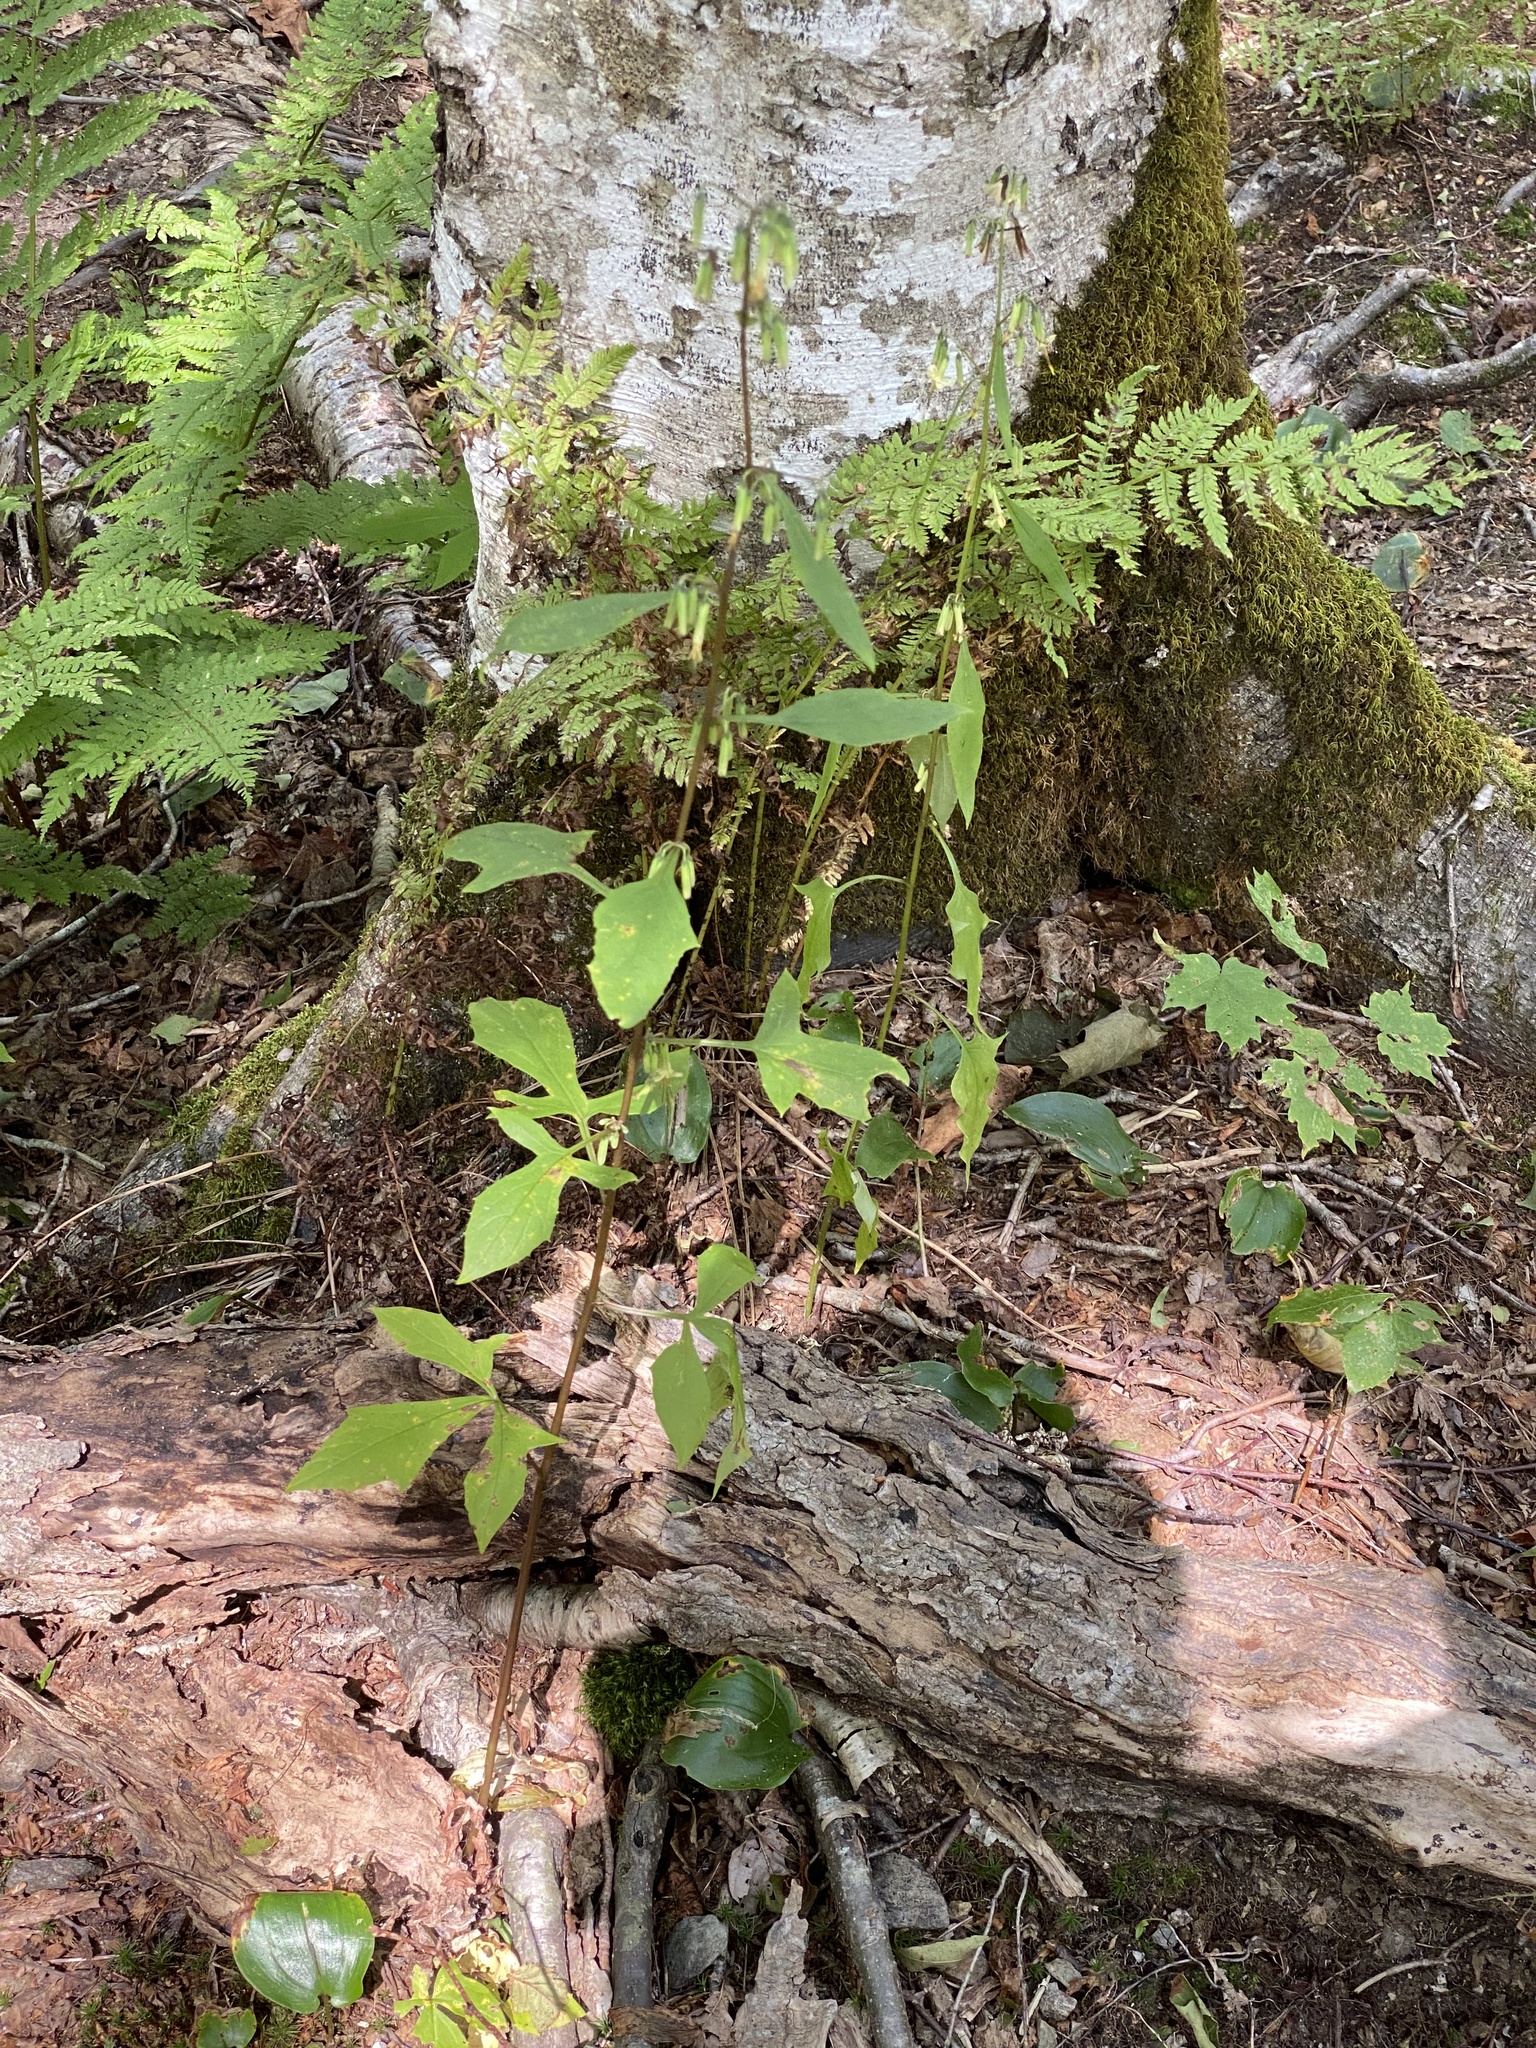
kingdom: Plantae
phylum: Tracheophyta
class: Magnoliopsida
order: Asterales
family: Asteraceae
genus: Nabalus
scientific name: Nabalus altissima
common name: Tall rattlesnakeroot
